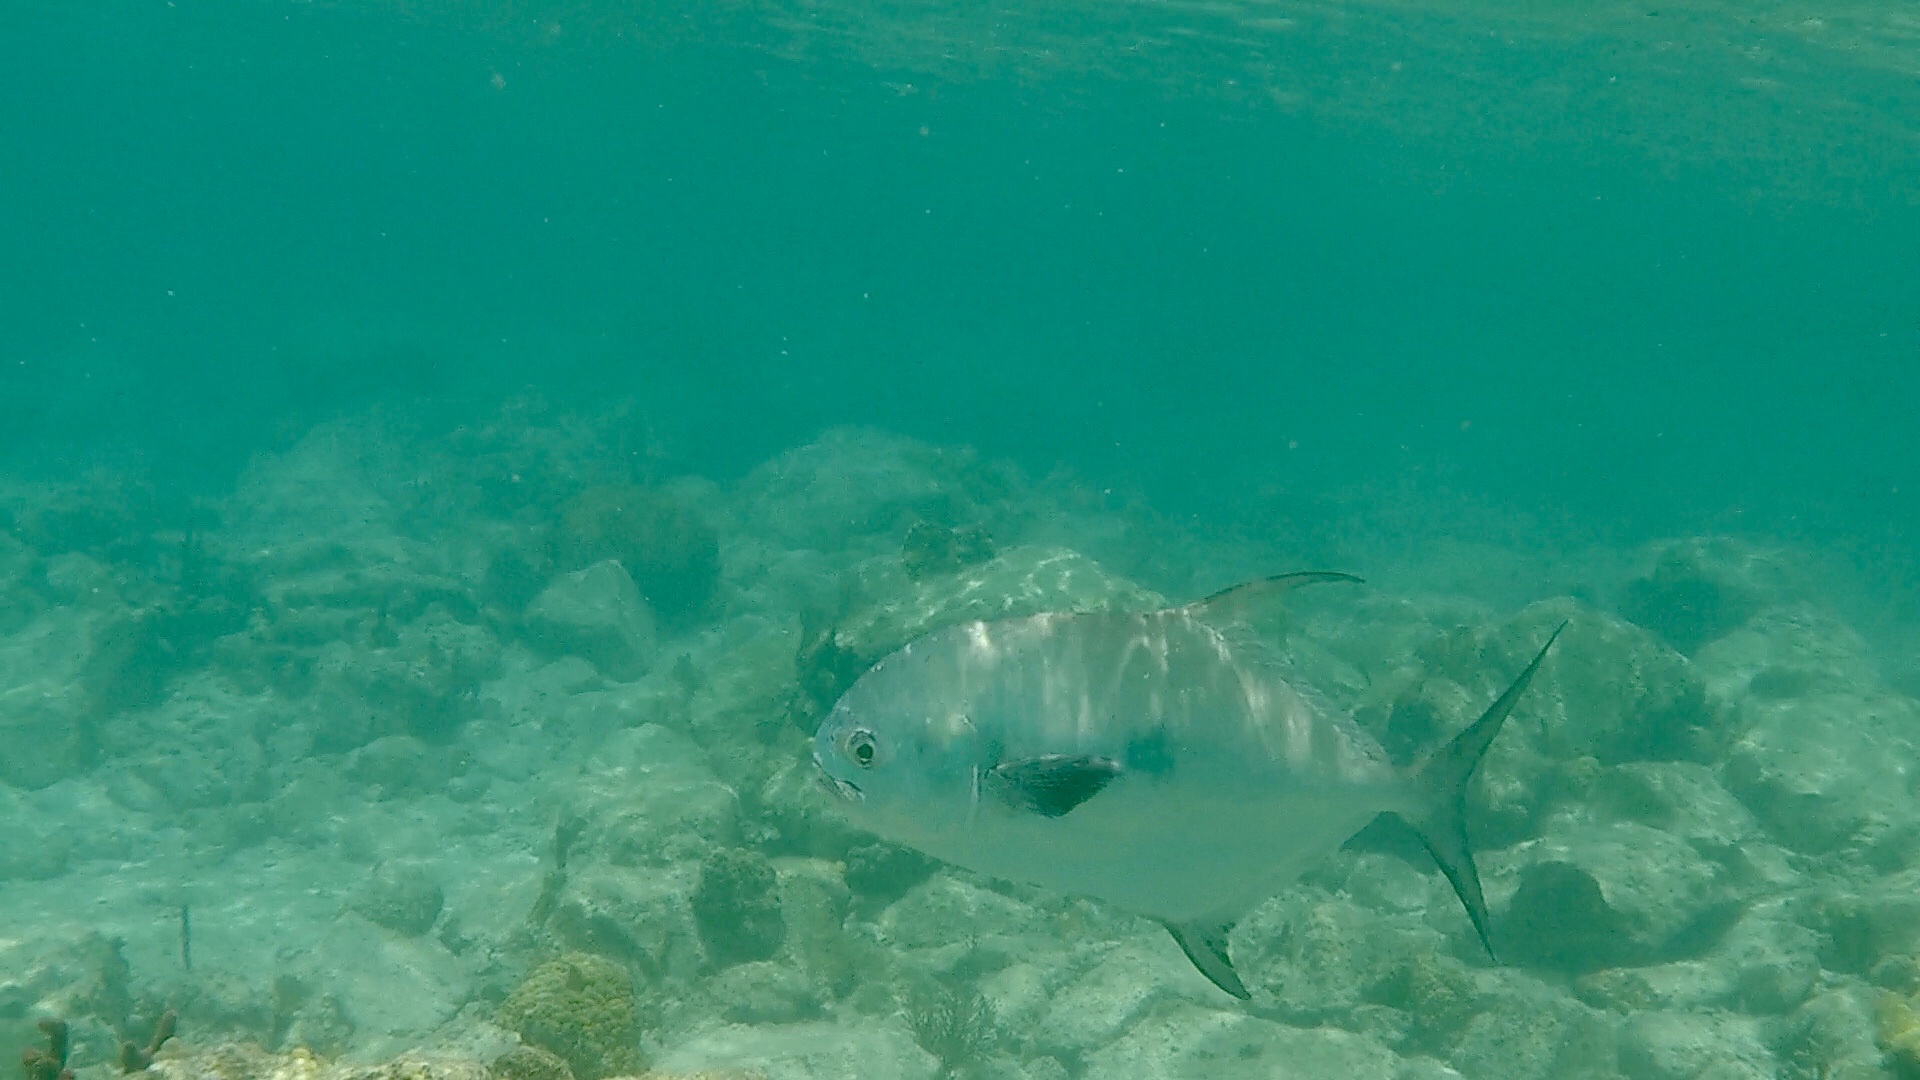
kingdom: Animalia
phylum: Chordata
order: Perciformes
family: Carangidae
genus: Trachinotus
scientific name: Trachinotus falcatus
